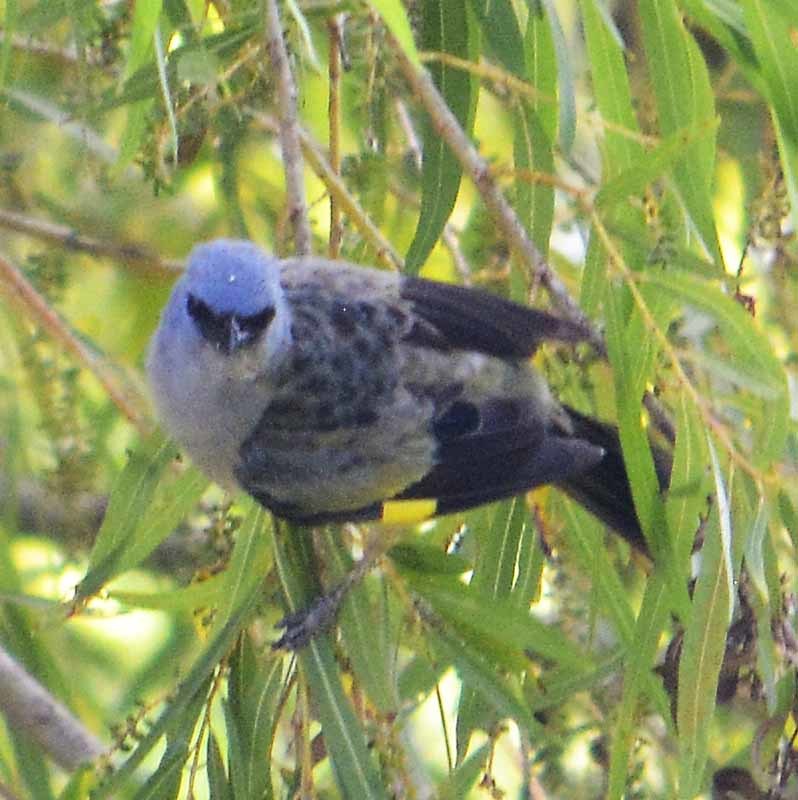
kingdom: Animalia
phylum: Chordata
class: Aves
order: Passeriformes
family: Thraupidae
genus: Thraupis
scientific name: Thraupis abbas
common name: Yellow-winged tanager
